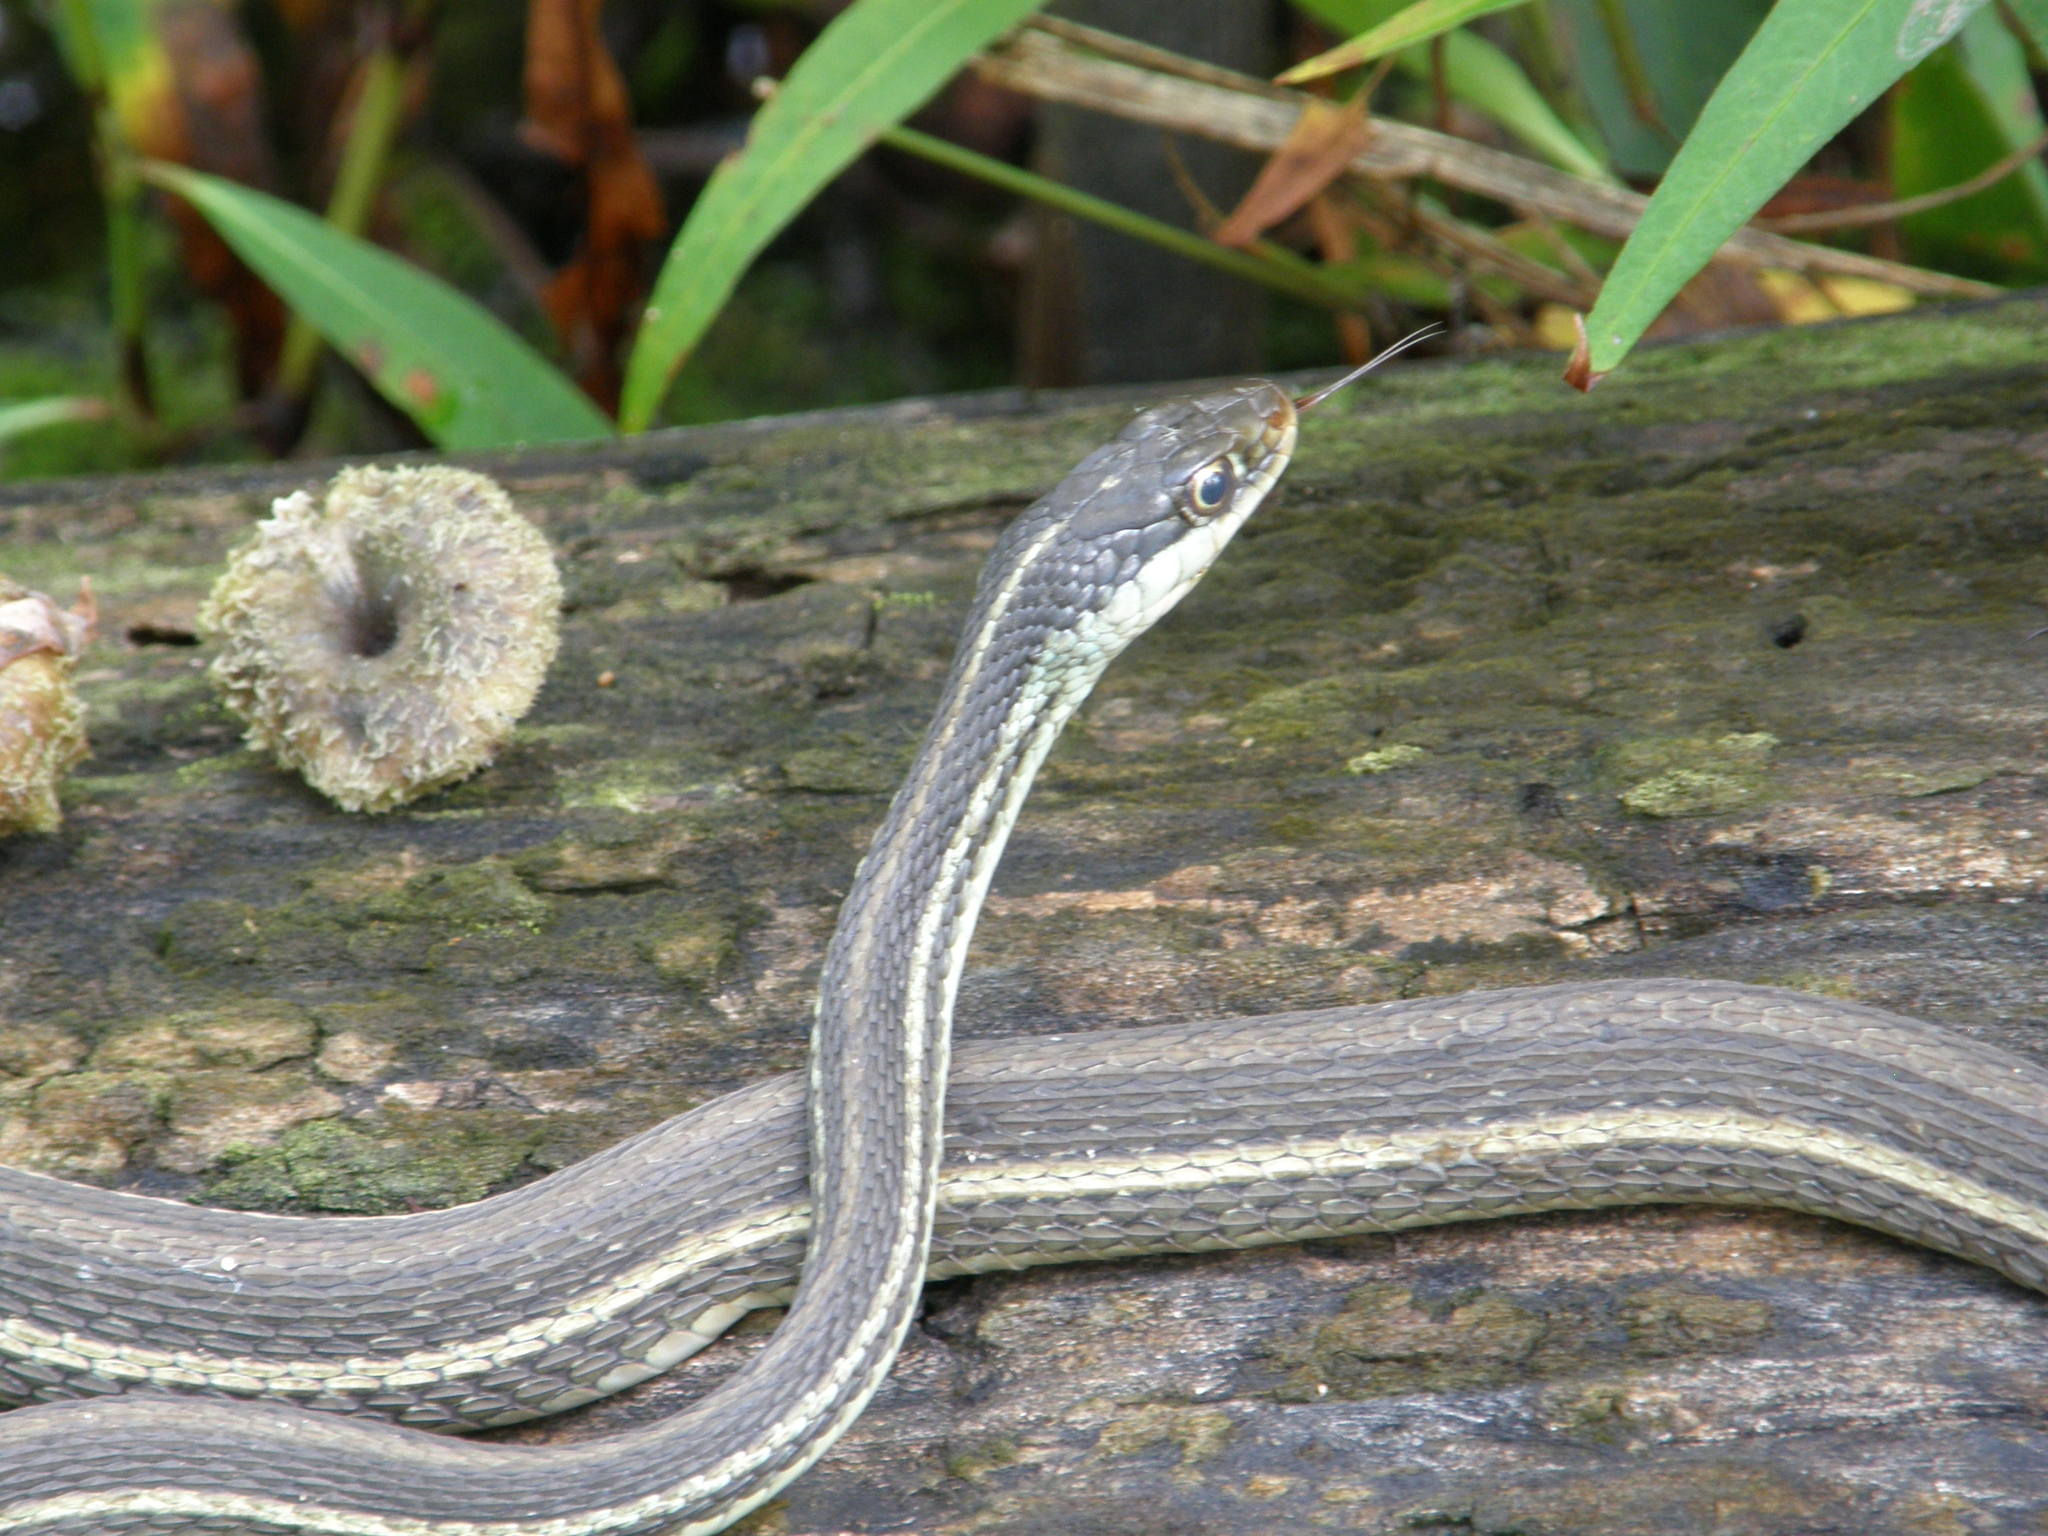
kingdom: Animalia
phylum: Chordata
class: Squamata
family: Colubridae
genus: Thamnophis
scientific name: Thamnophis proximus
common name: Western ribbon snake
